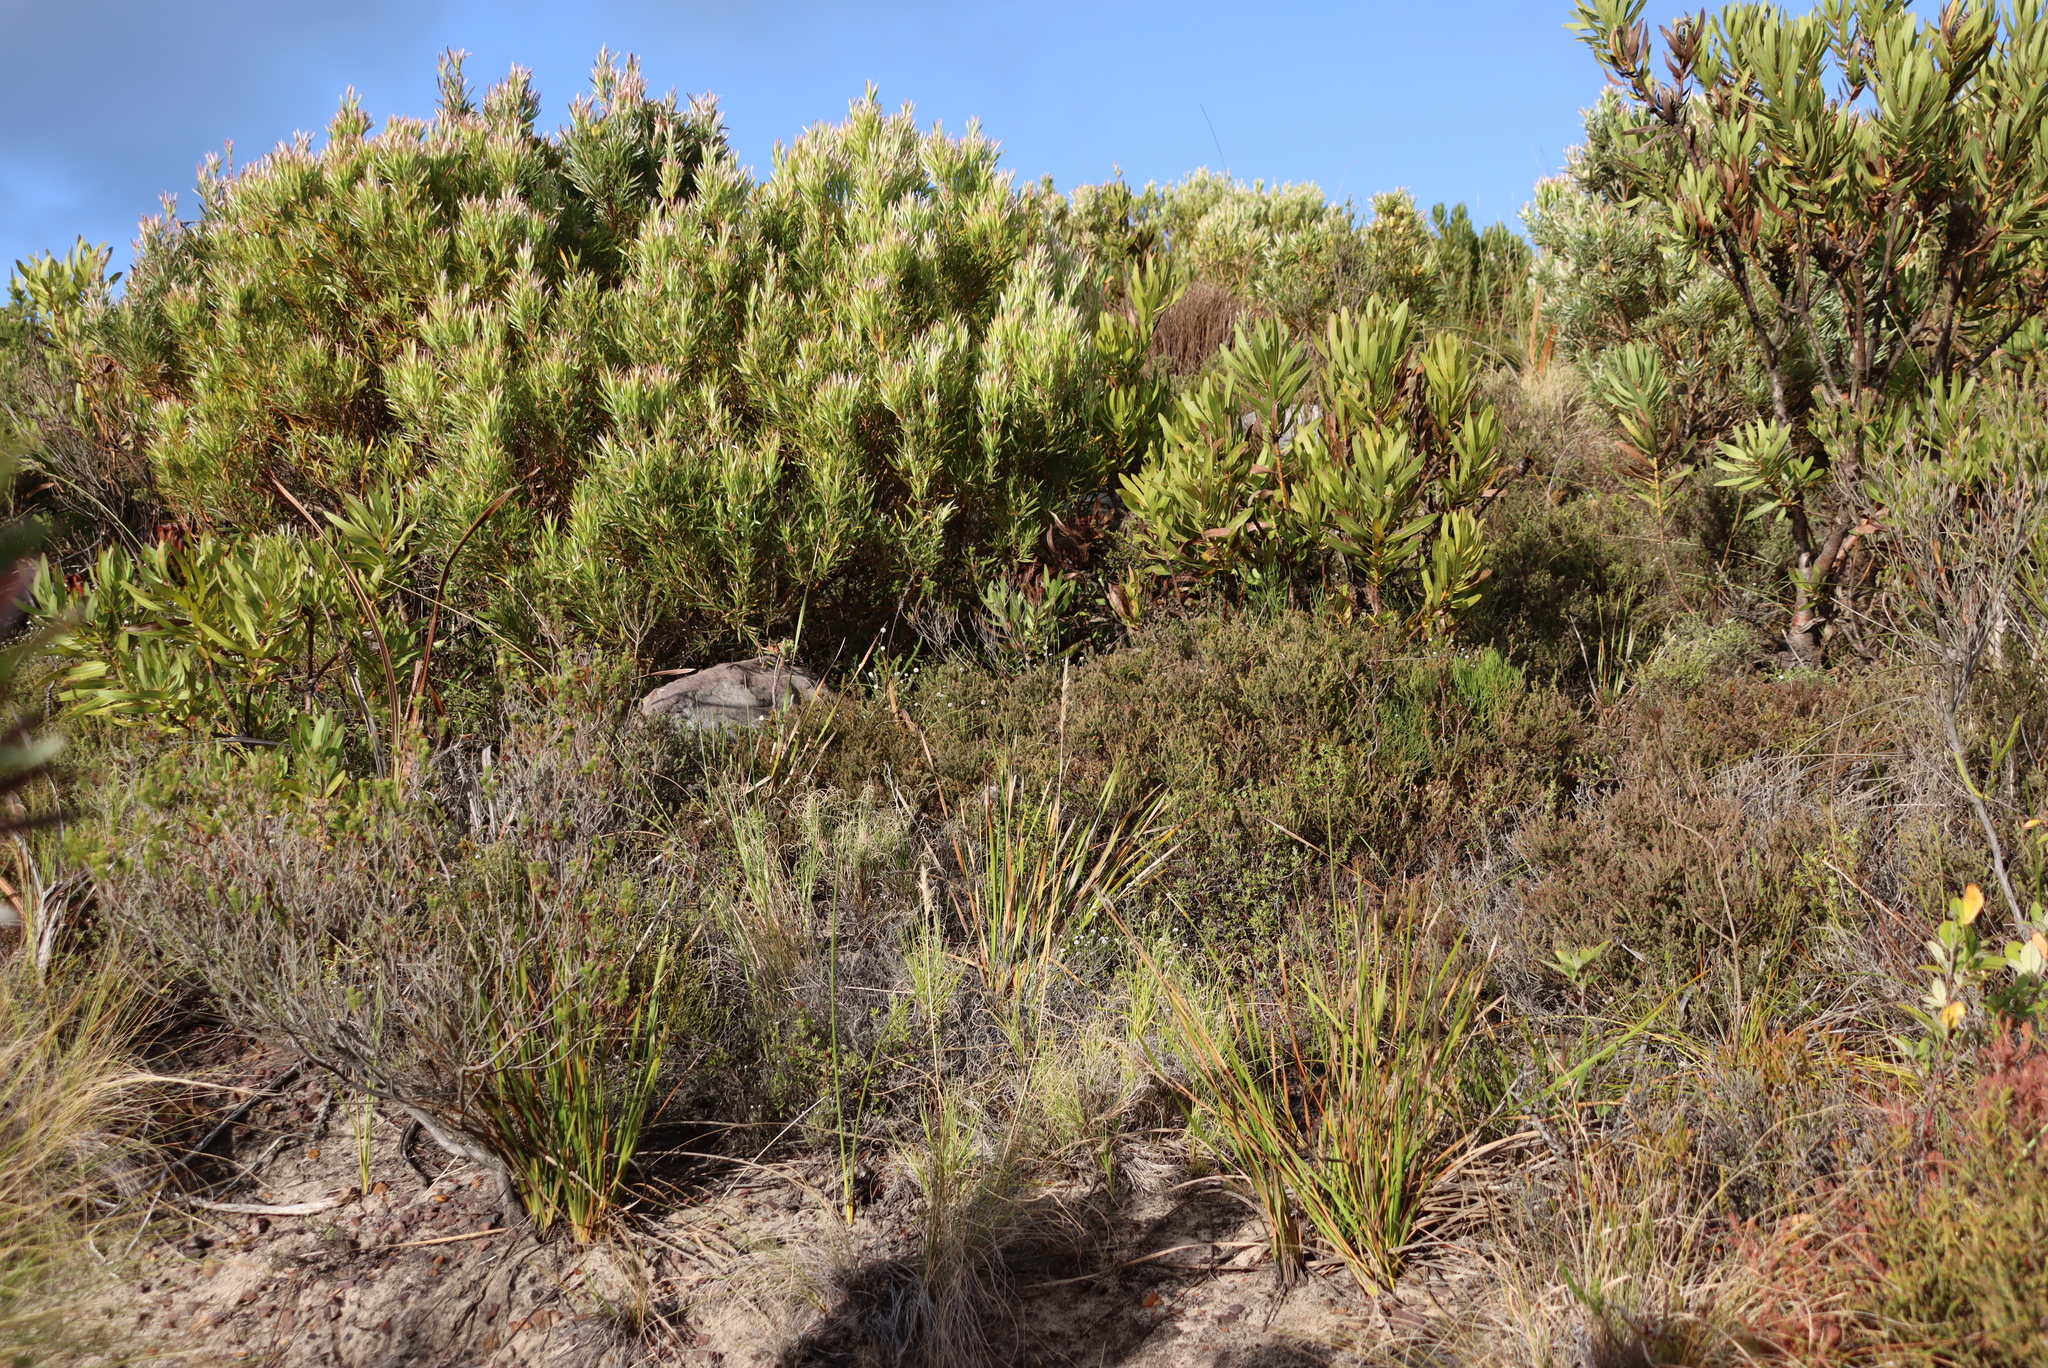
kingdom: Plantae
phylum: Tracheophyta
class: Magnoliopsida
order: Proteales
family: Proteaceae
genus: Leucadendron
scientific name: Leucadendron xanthoconus
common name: Sickle-leaf conebush
